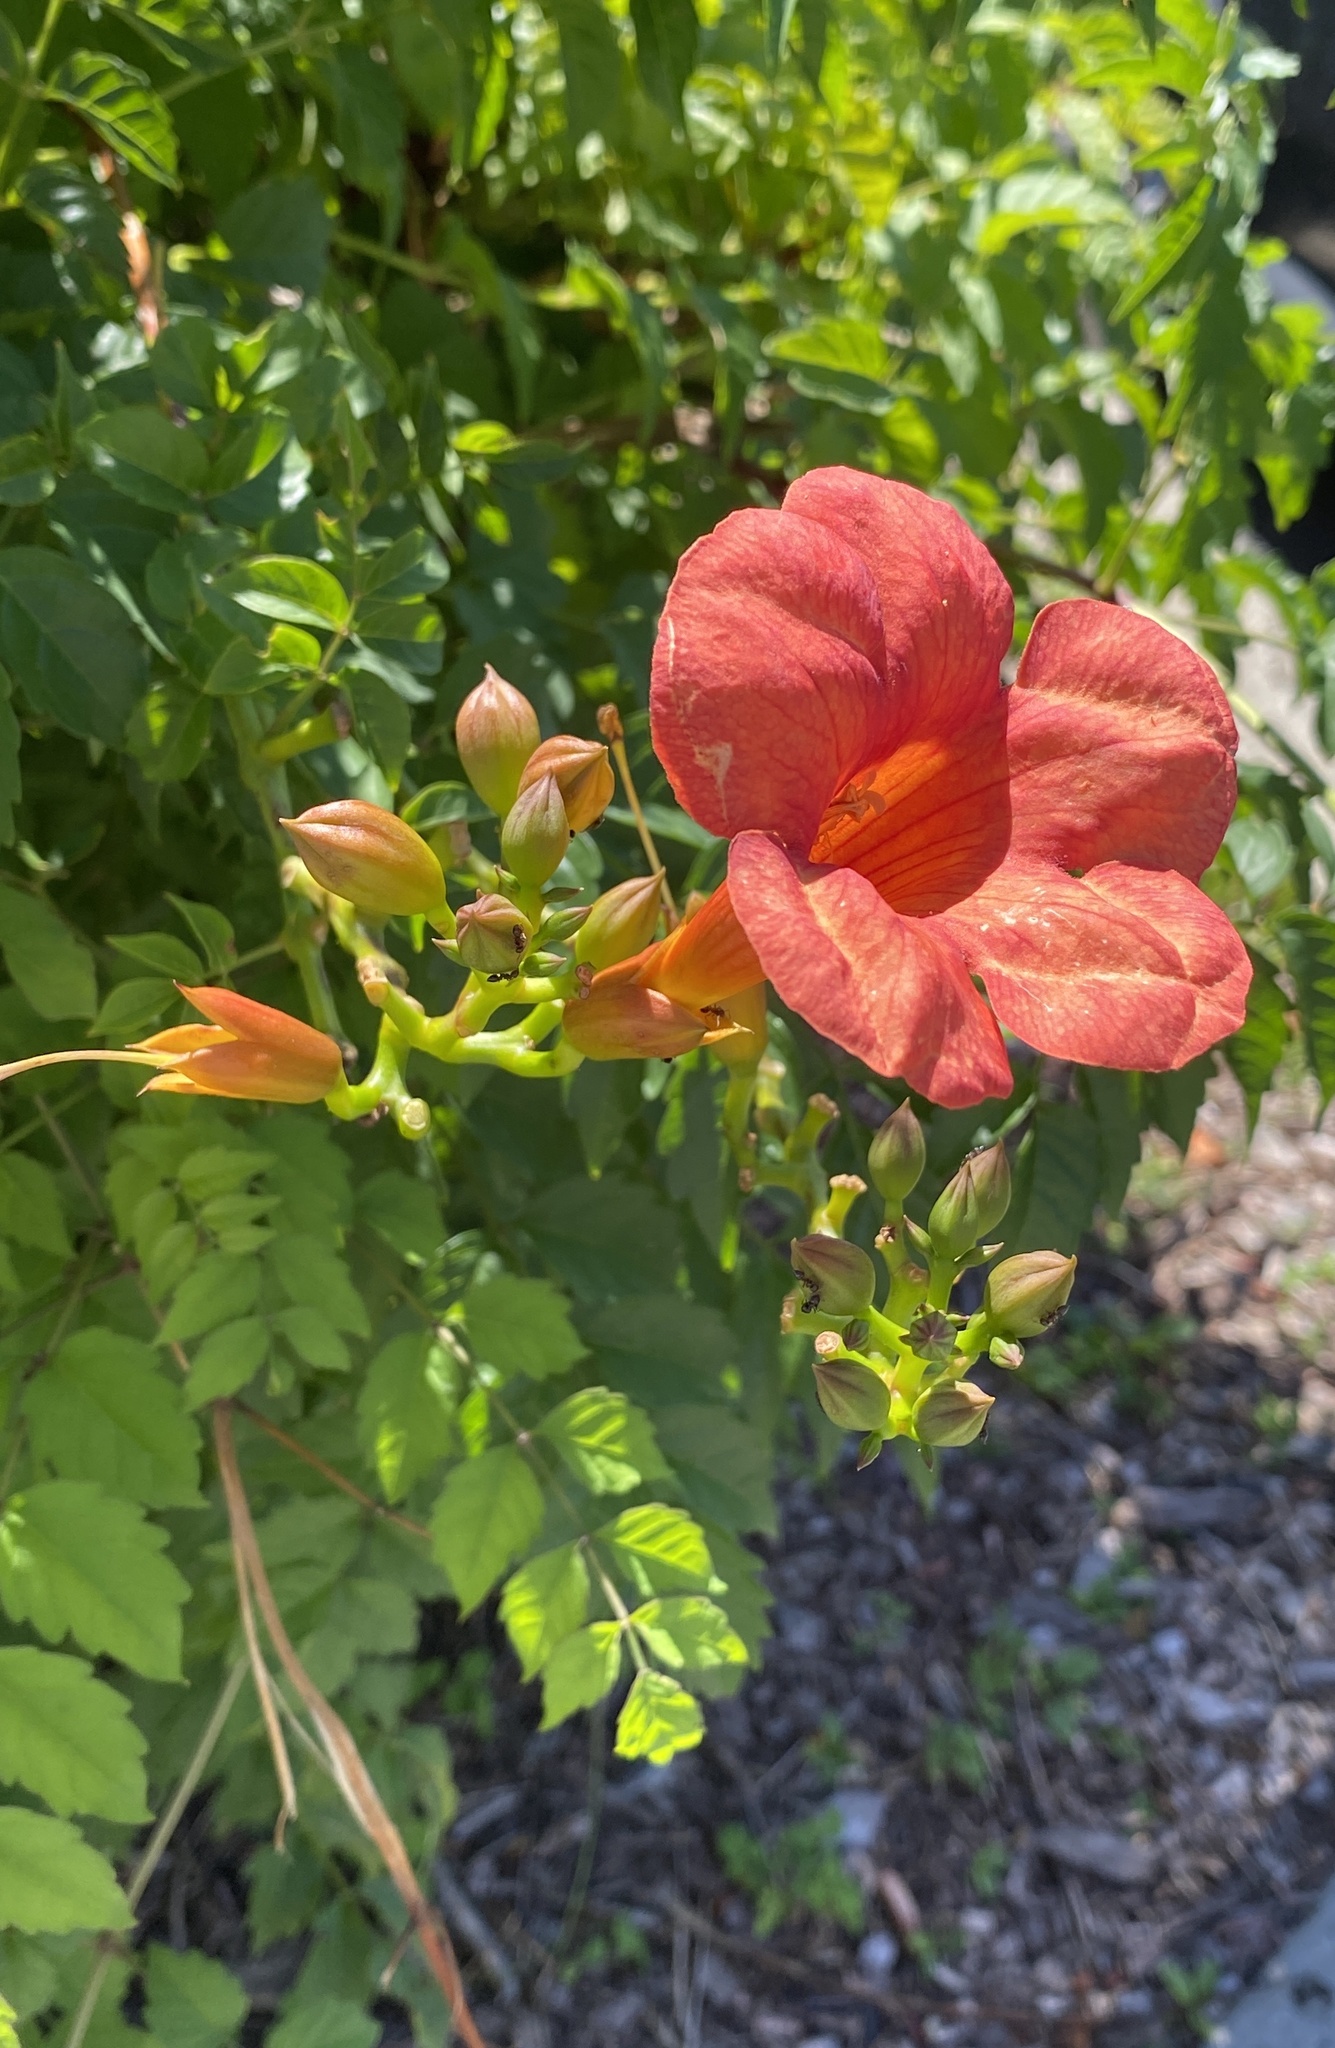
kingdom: Plantae
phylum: Tracheophyta
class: Magnoliopsida
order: Lamiales
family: Bignoniaceae
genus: Campsis
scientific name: Campsis radicans
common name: Trumpet-creeper
